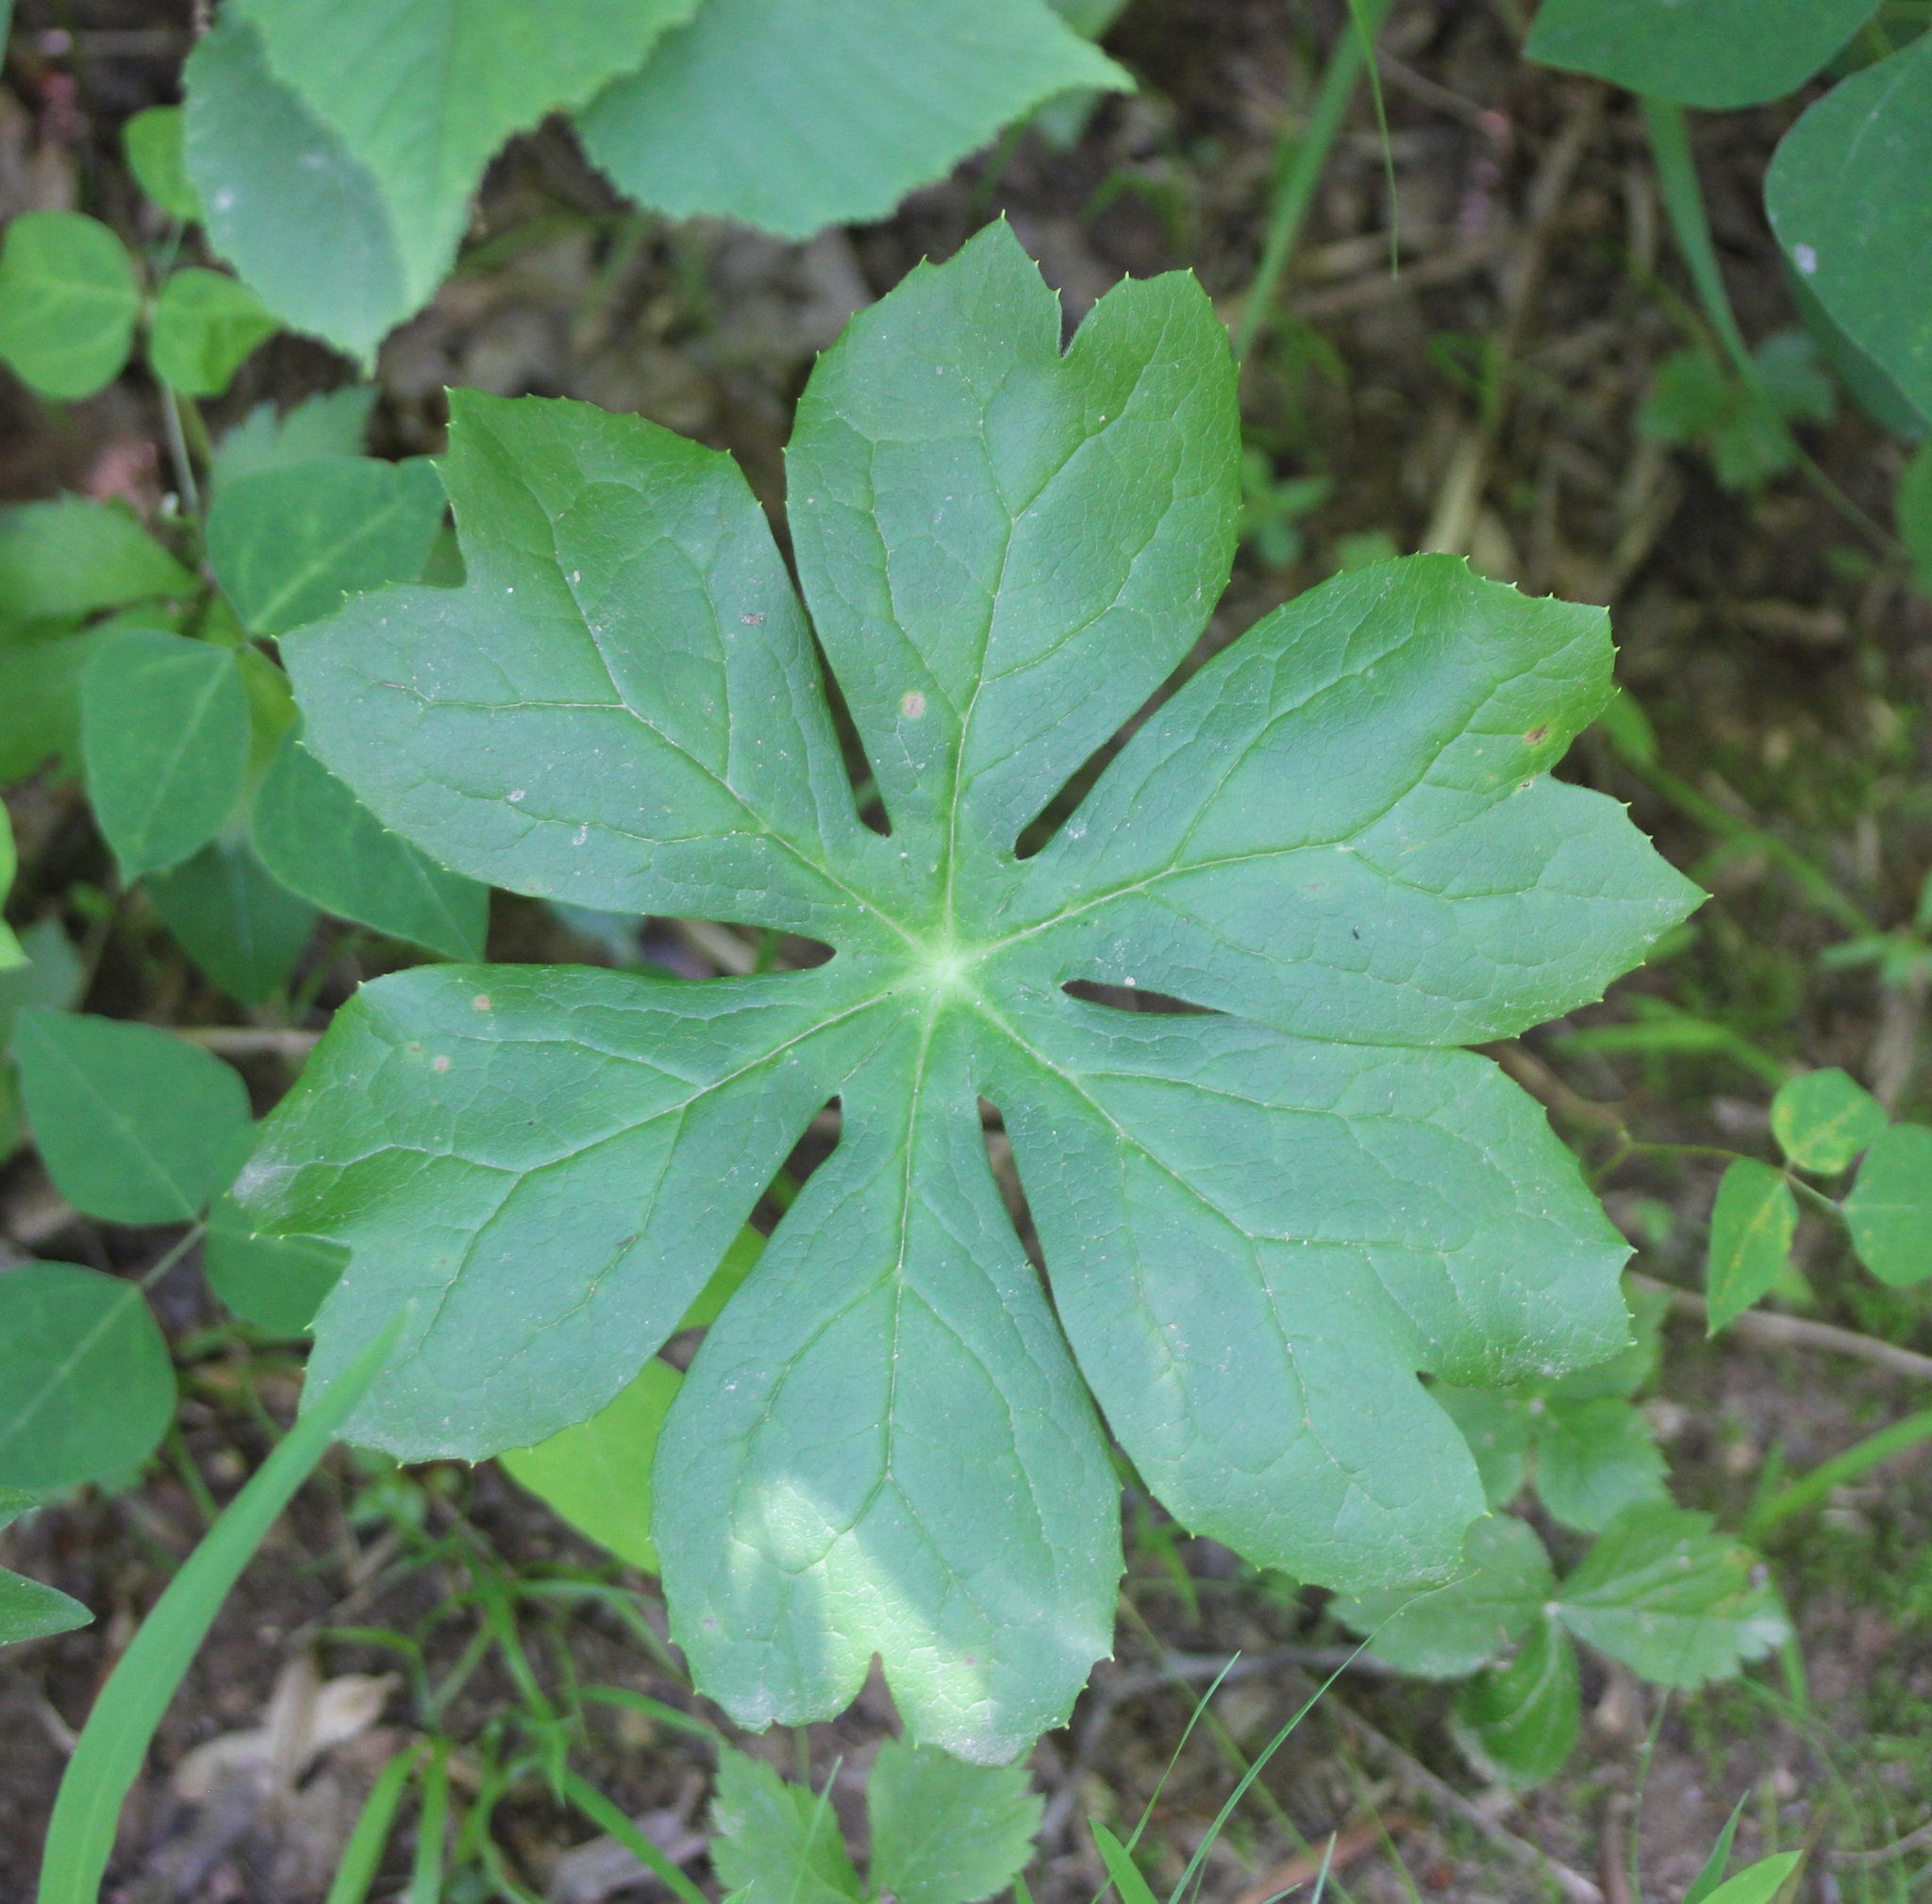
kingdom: Plantae
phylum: Tracheophyta
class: Magnoliopsida
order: Ranunculales
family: Berberidaceae
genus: Podophyllum
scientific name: Podophyllum peltatum
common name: Wild mandrake
